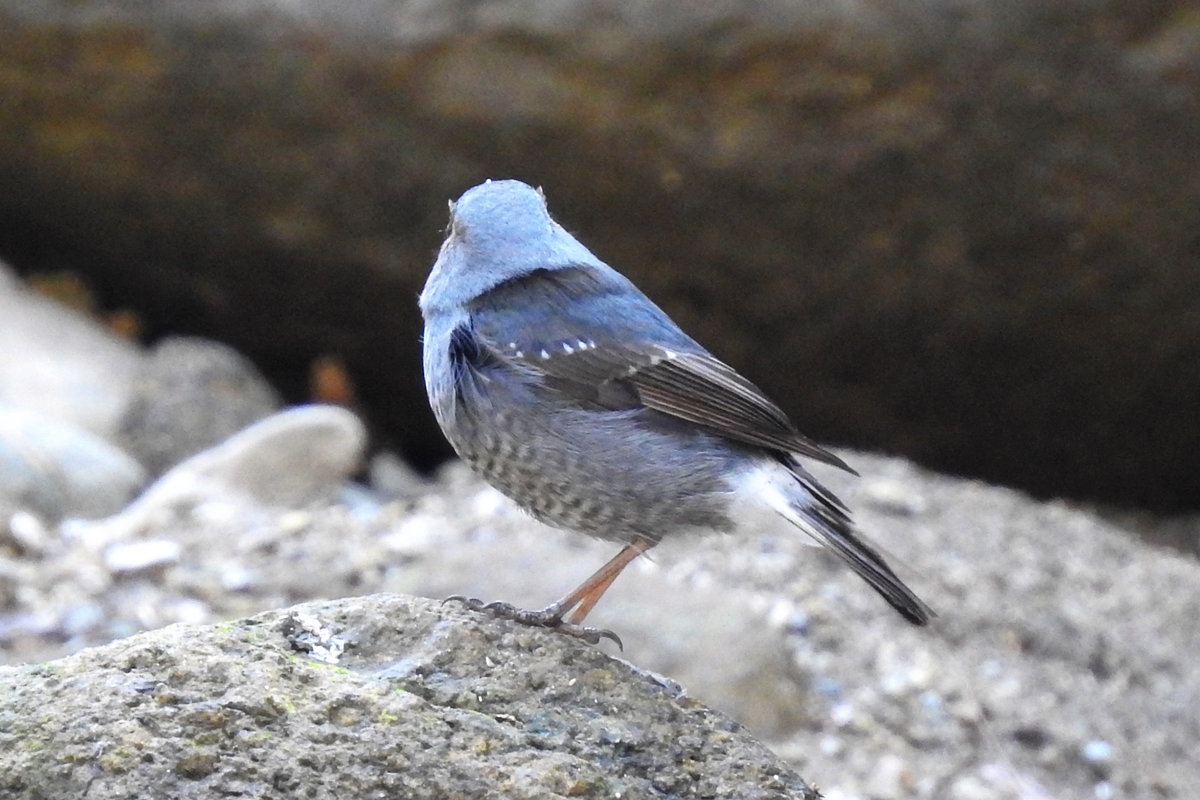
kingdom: Animalia
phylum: Chordata
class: Aves
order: Passeriformes
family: Muscicapidae
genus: Monticola
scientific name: Monticola solitarius
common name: Blue rock thrush
